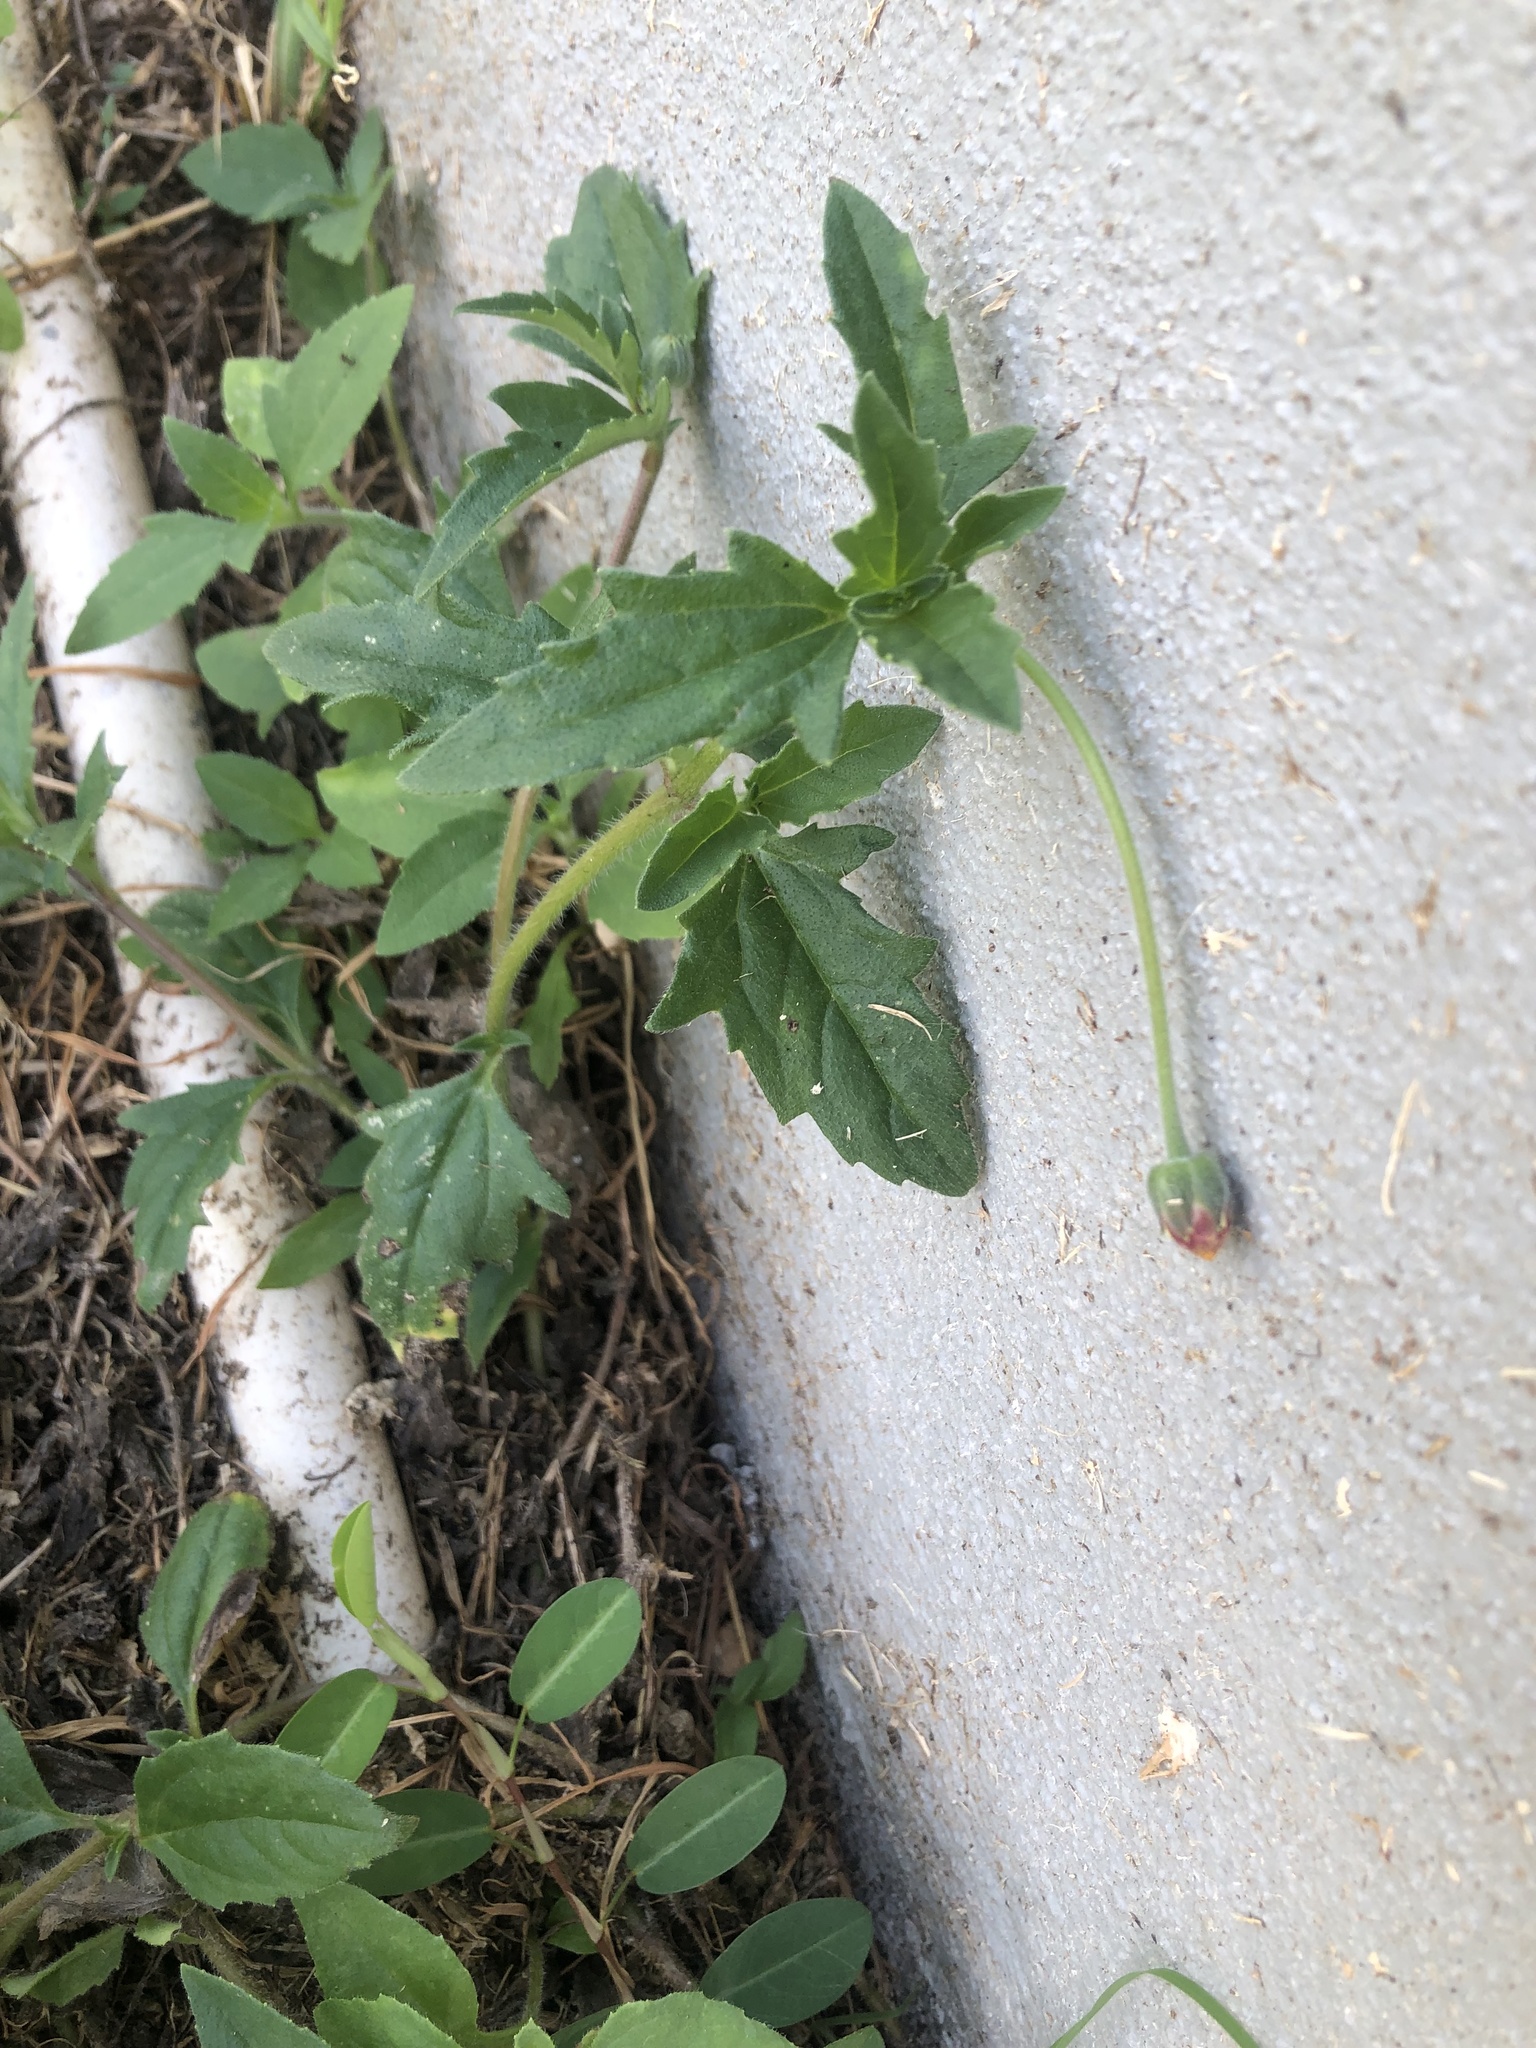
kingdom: Plantae
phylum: Tracheophyta
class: Magnoliopsida
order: Asterales
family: Asteraceae
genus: Tridax
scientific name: Tridax procumbens
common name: Coatbuttons
